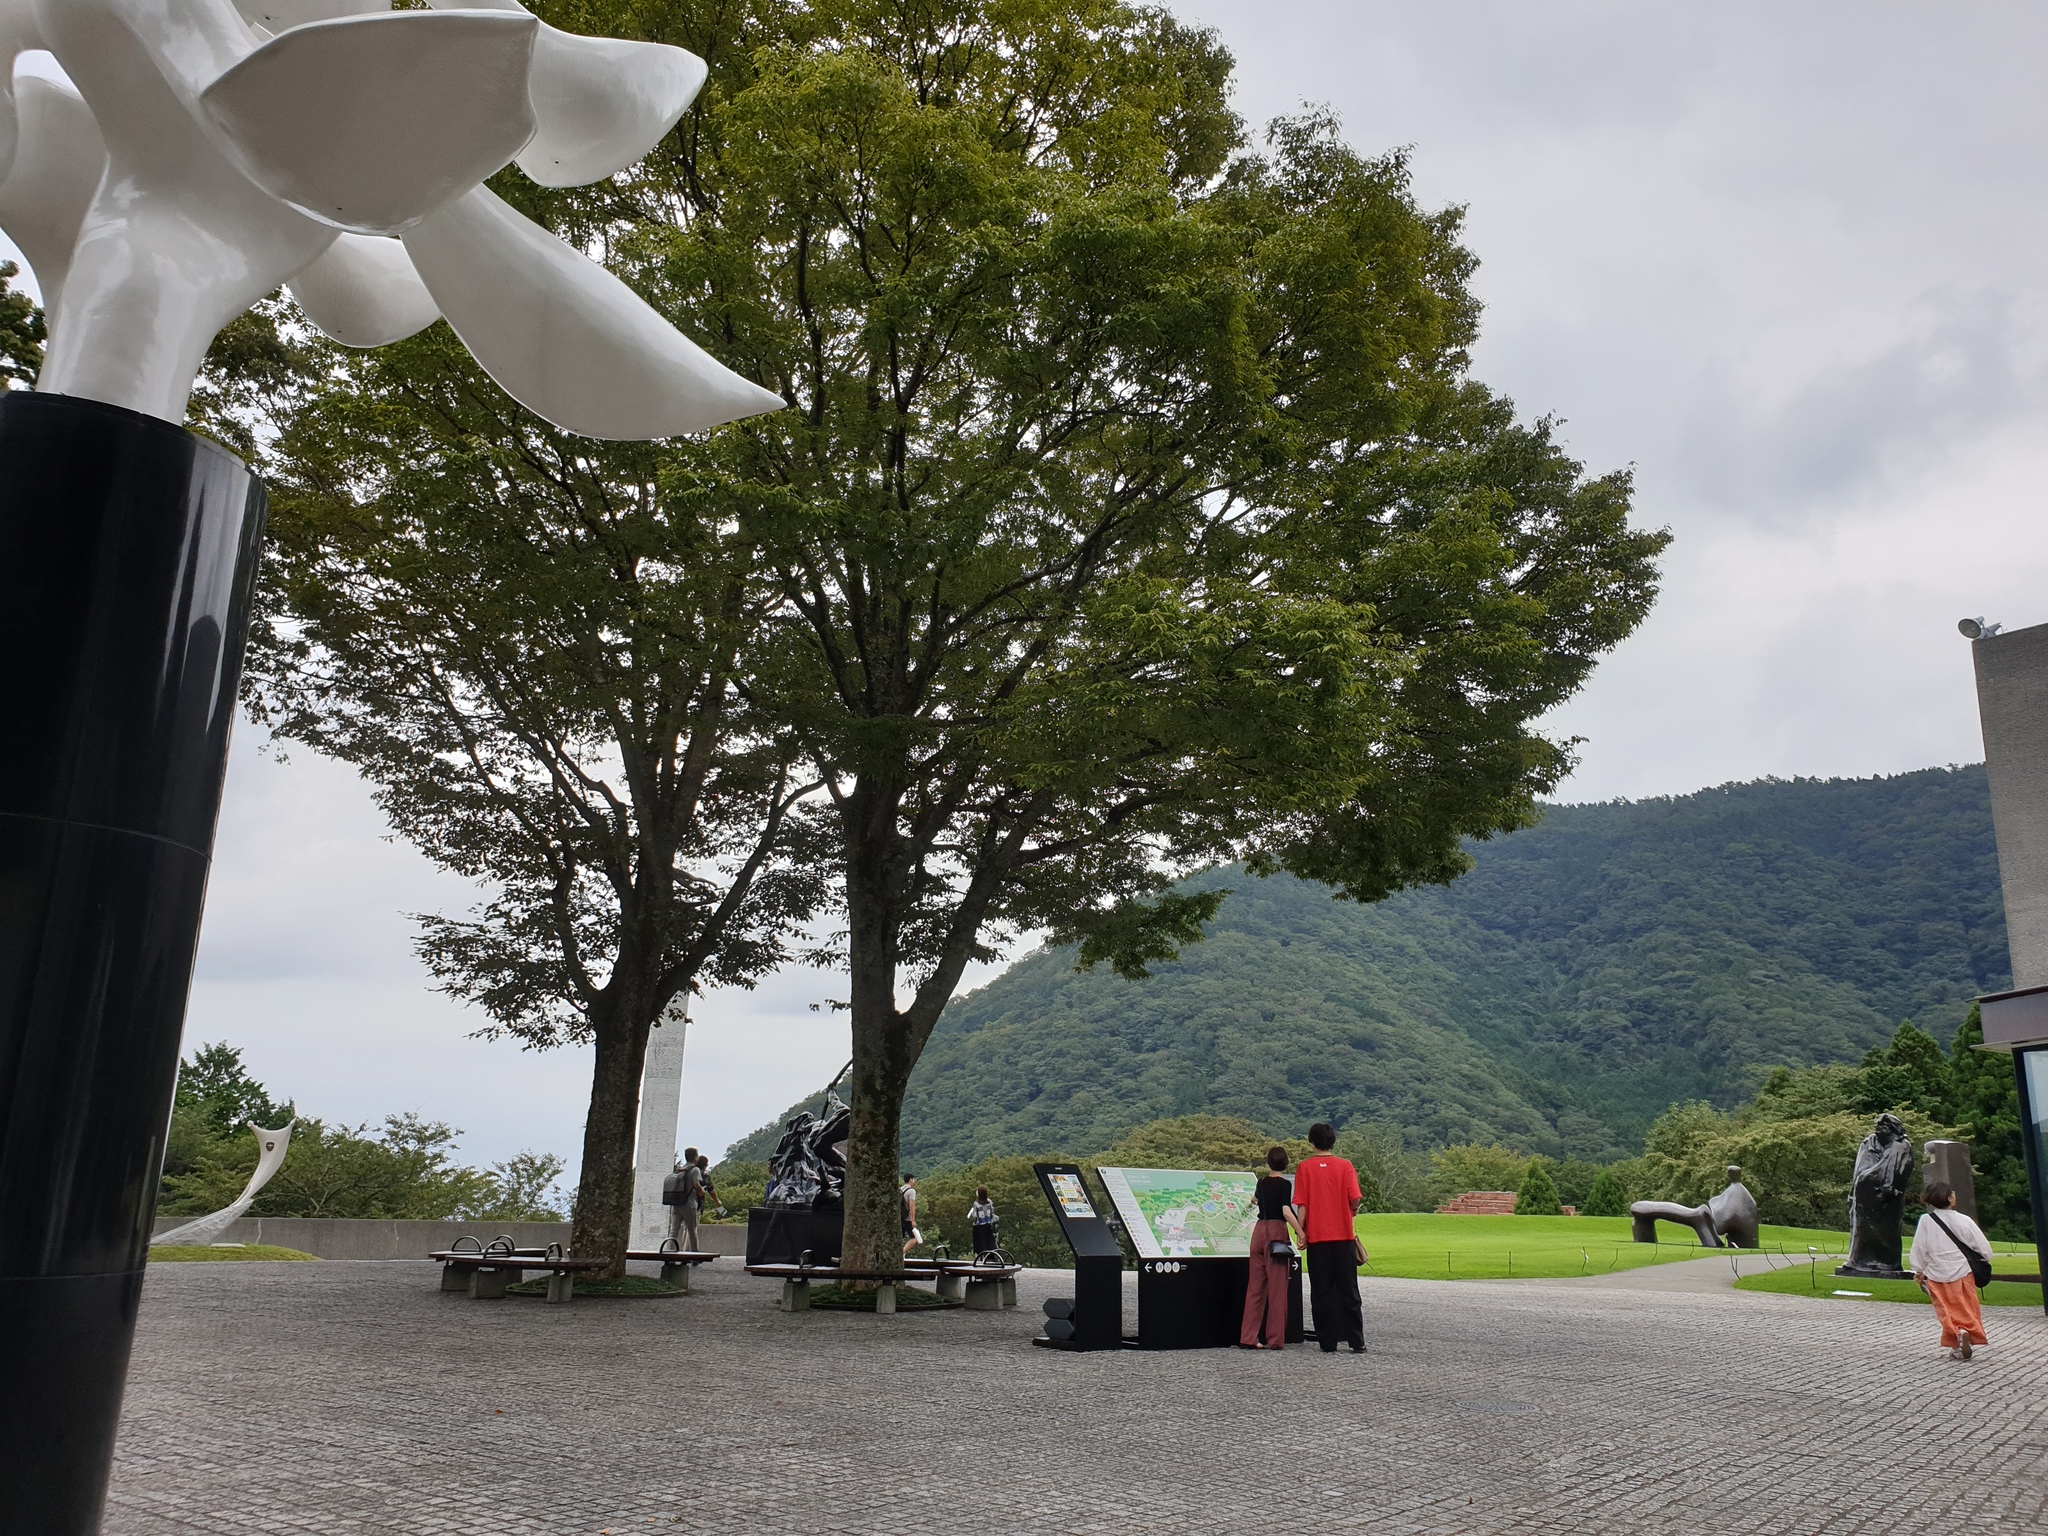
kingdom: Animalia
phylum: Arthropoda
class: Insecta
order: Lepidoptera
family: Lycaenidae
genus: Pseudozizeeria
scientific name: Pseudozizeeria maha
